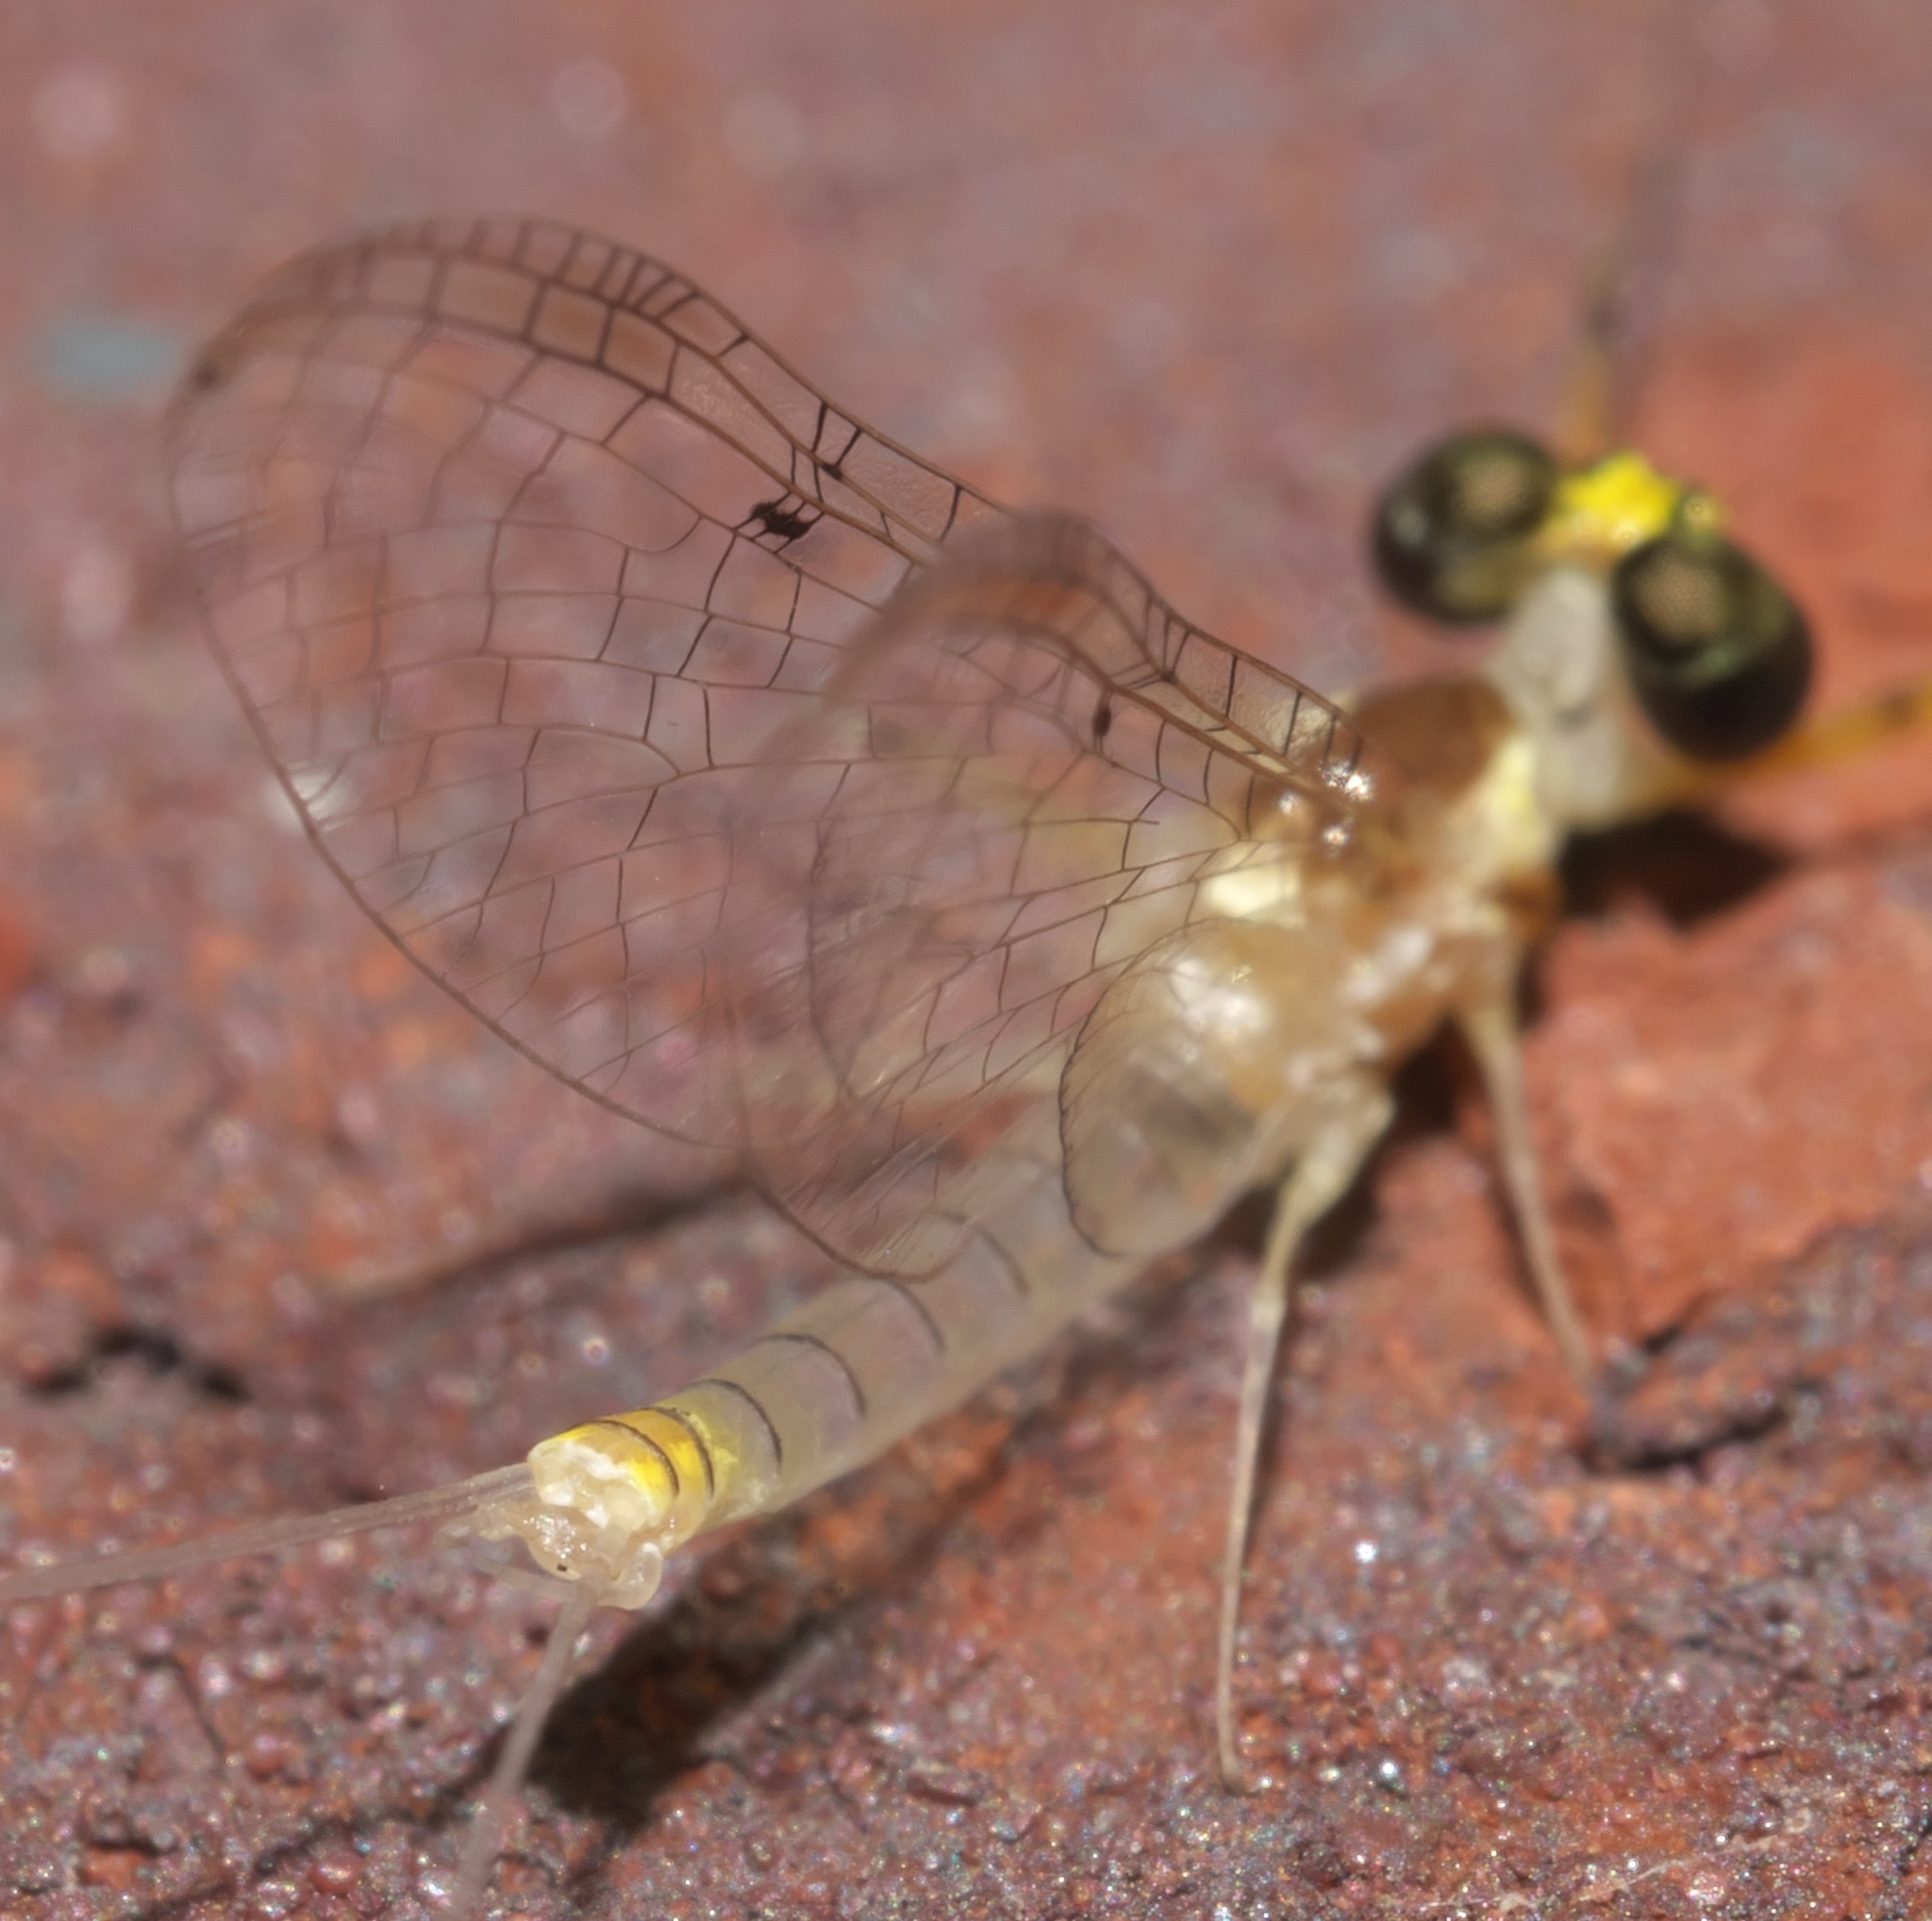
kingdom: Animalia
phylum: Arthropoda
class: Insecta
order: Ephemeroptera
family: Heptageniidae
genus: Stenacron
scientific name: Stenacron interpunctatum
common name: Orange cahill
